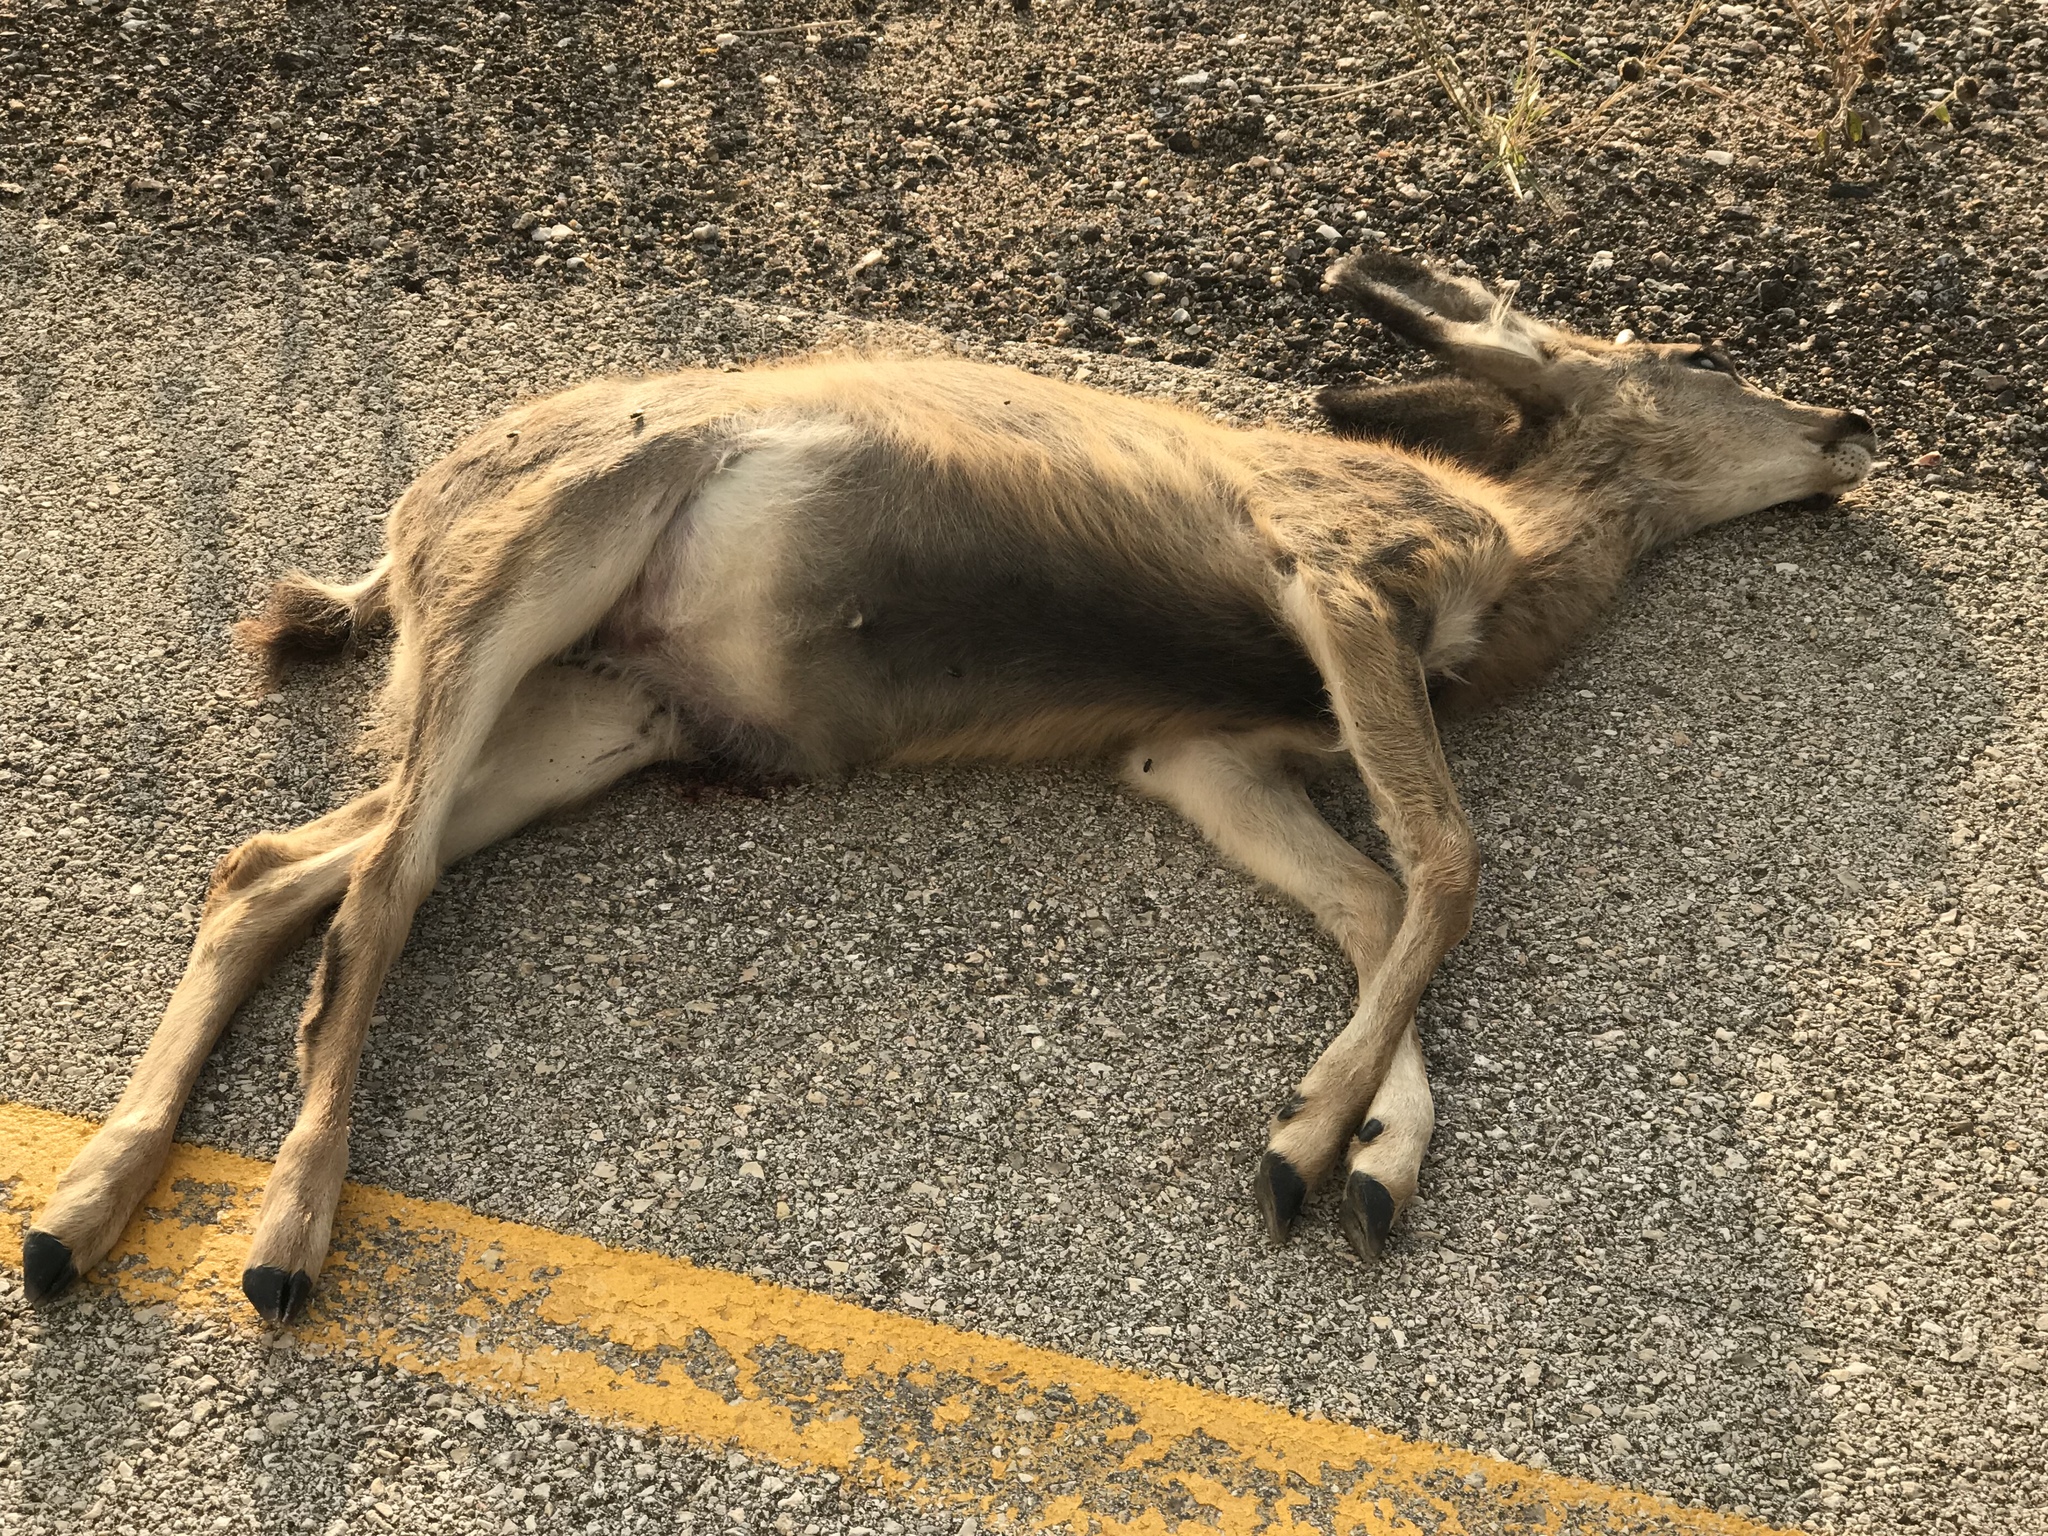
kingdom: Animalia
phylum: Chordata
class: Mammalia
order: Artiodactyla
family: Cervidae
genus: Odocoileus
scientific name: Odocoileus hemionus
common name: Mule deer
